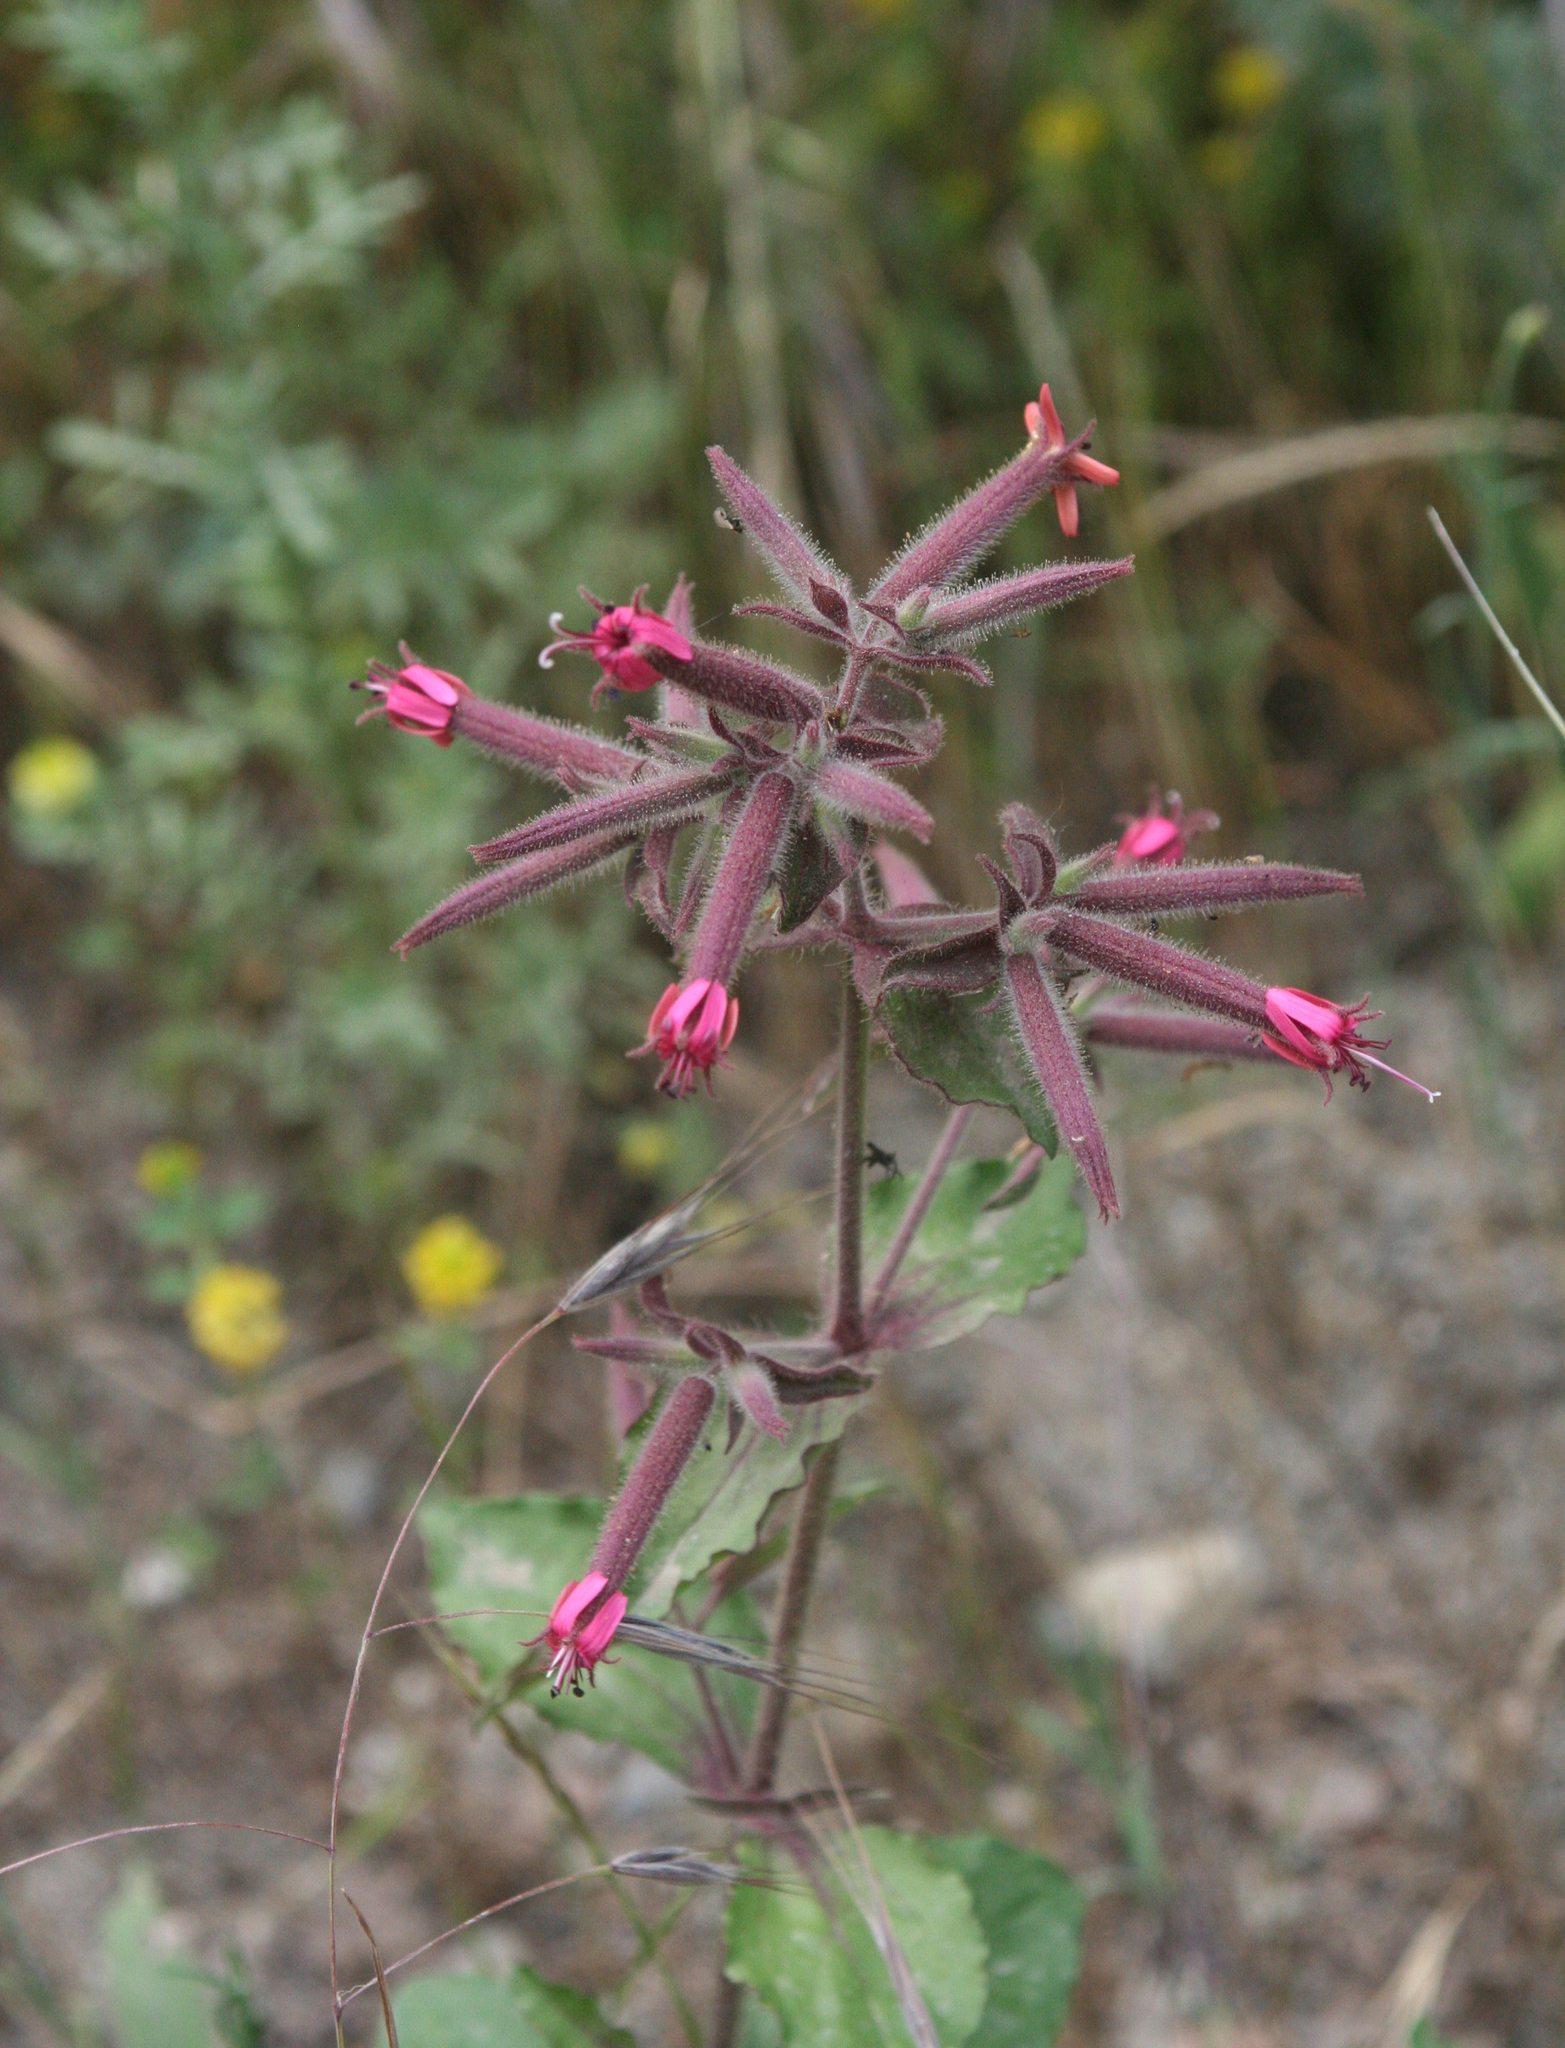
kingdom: Plantae
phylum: Tracheophyta
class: Magnoliopsida
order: Caryophyllales
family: Caryophyllaceae
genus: Saponaria
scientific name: Saponaria glutinosa
